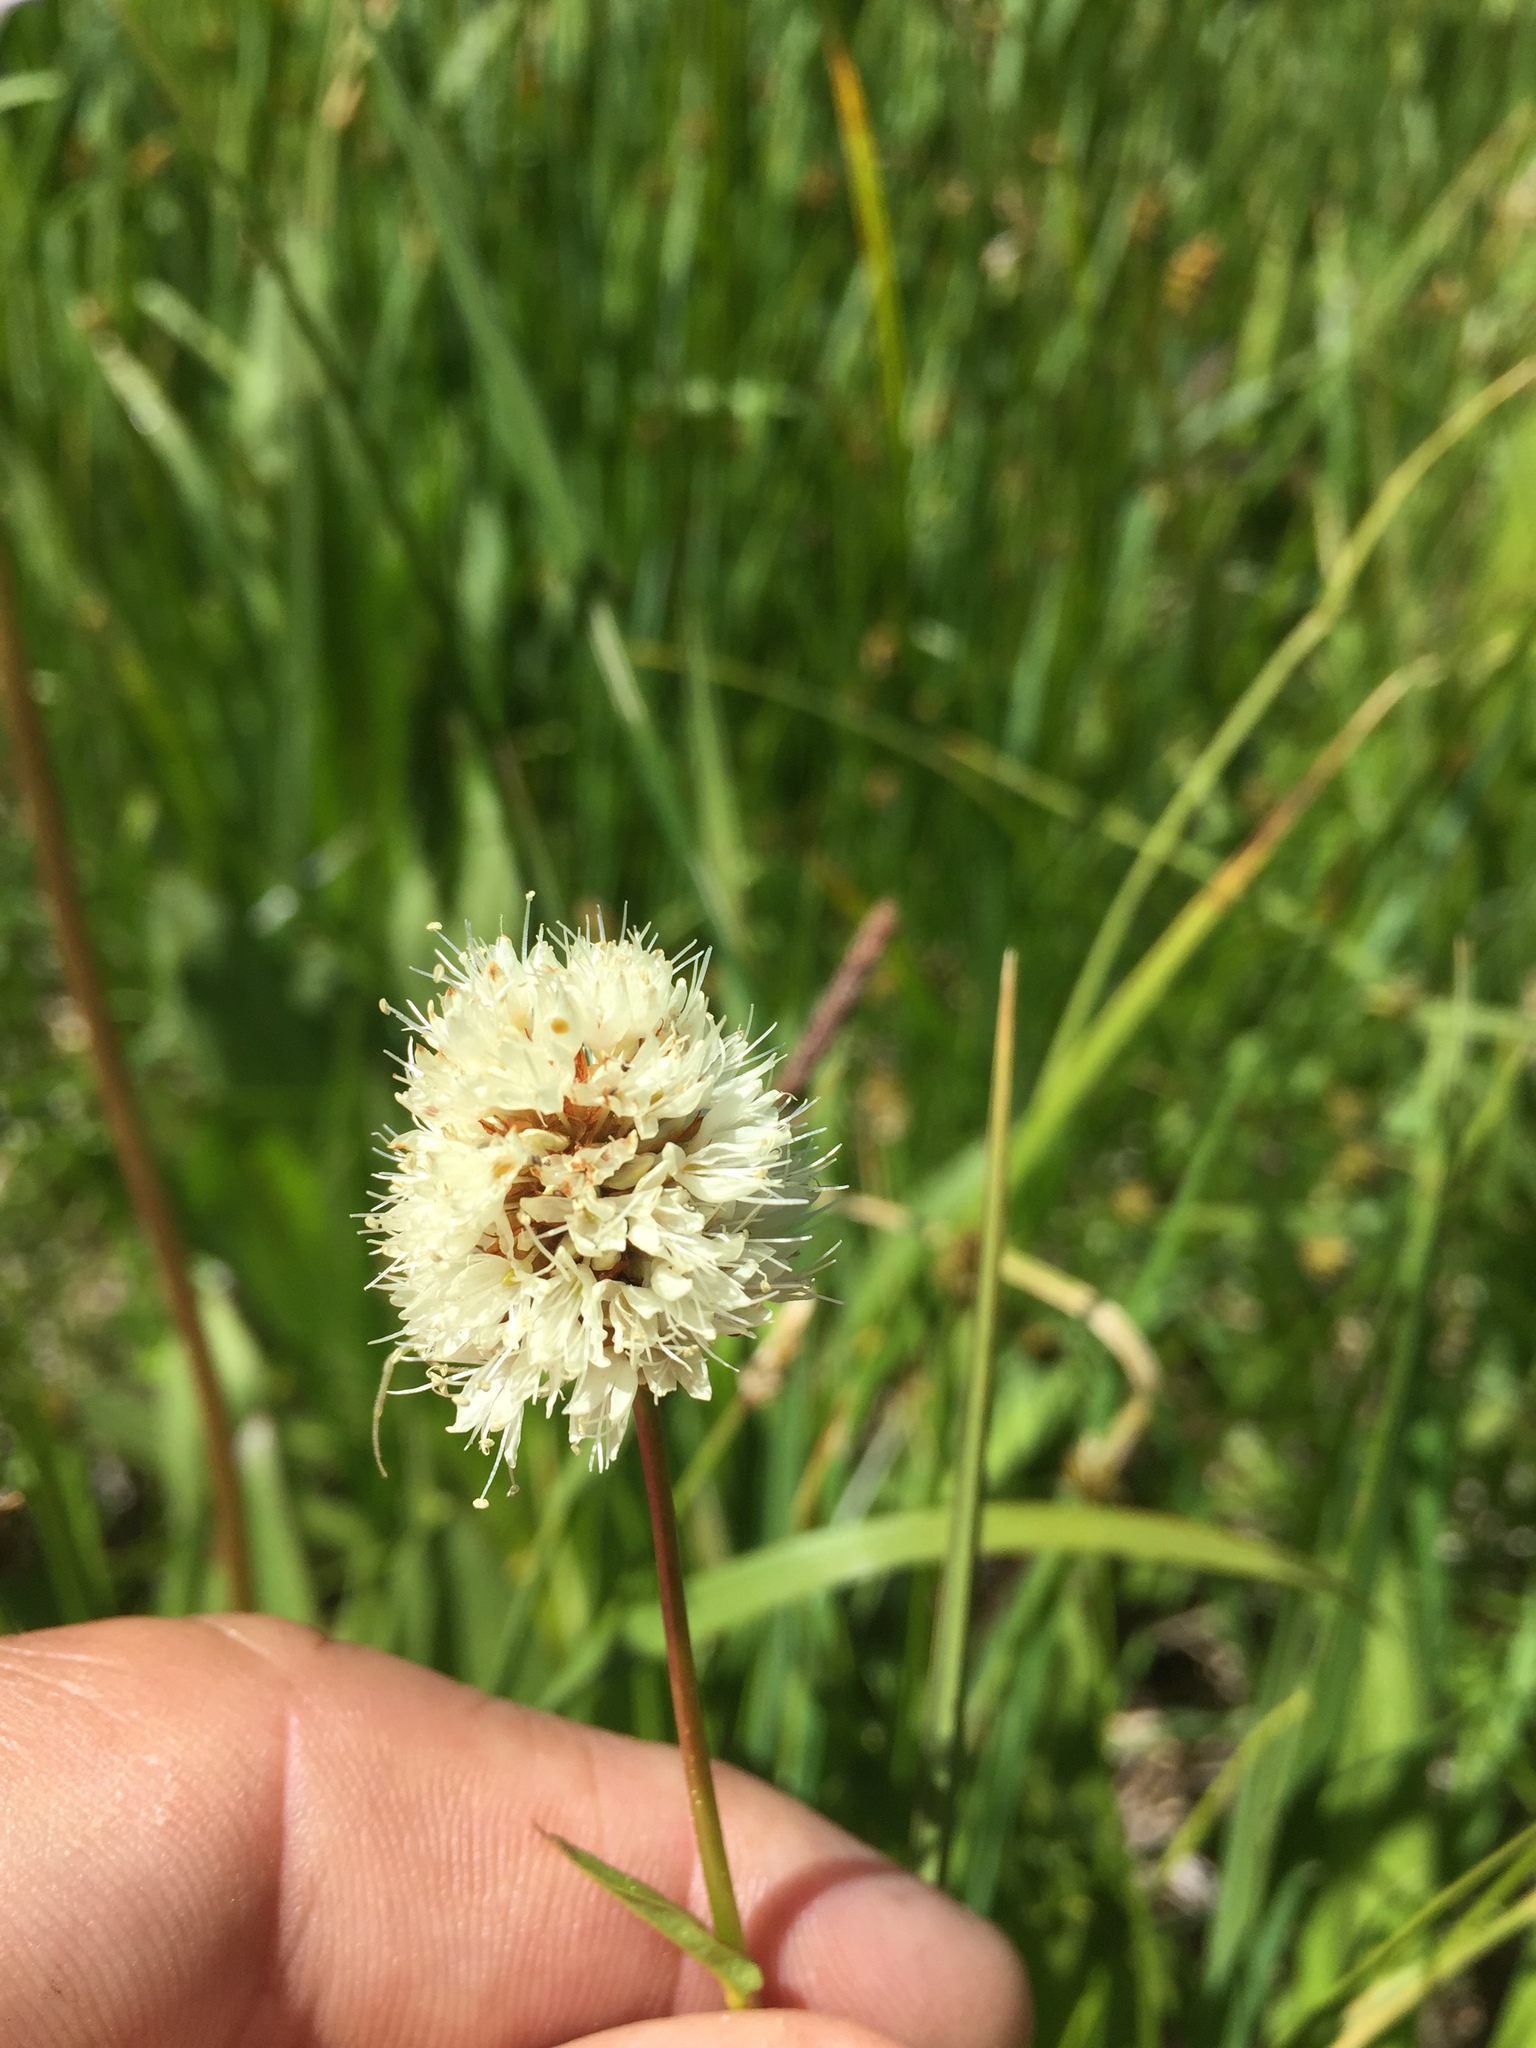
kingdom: Plantae
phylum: Tracheophyta
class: Magnoliopsida
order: Caryophyllales
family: Polygonaceae
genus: Bistorta
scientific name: Bistorta bistortoides
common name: American bistort
